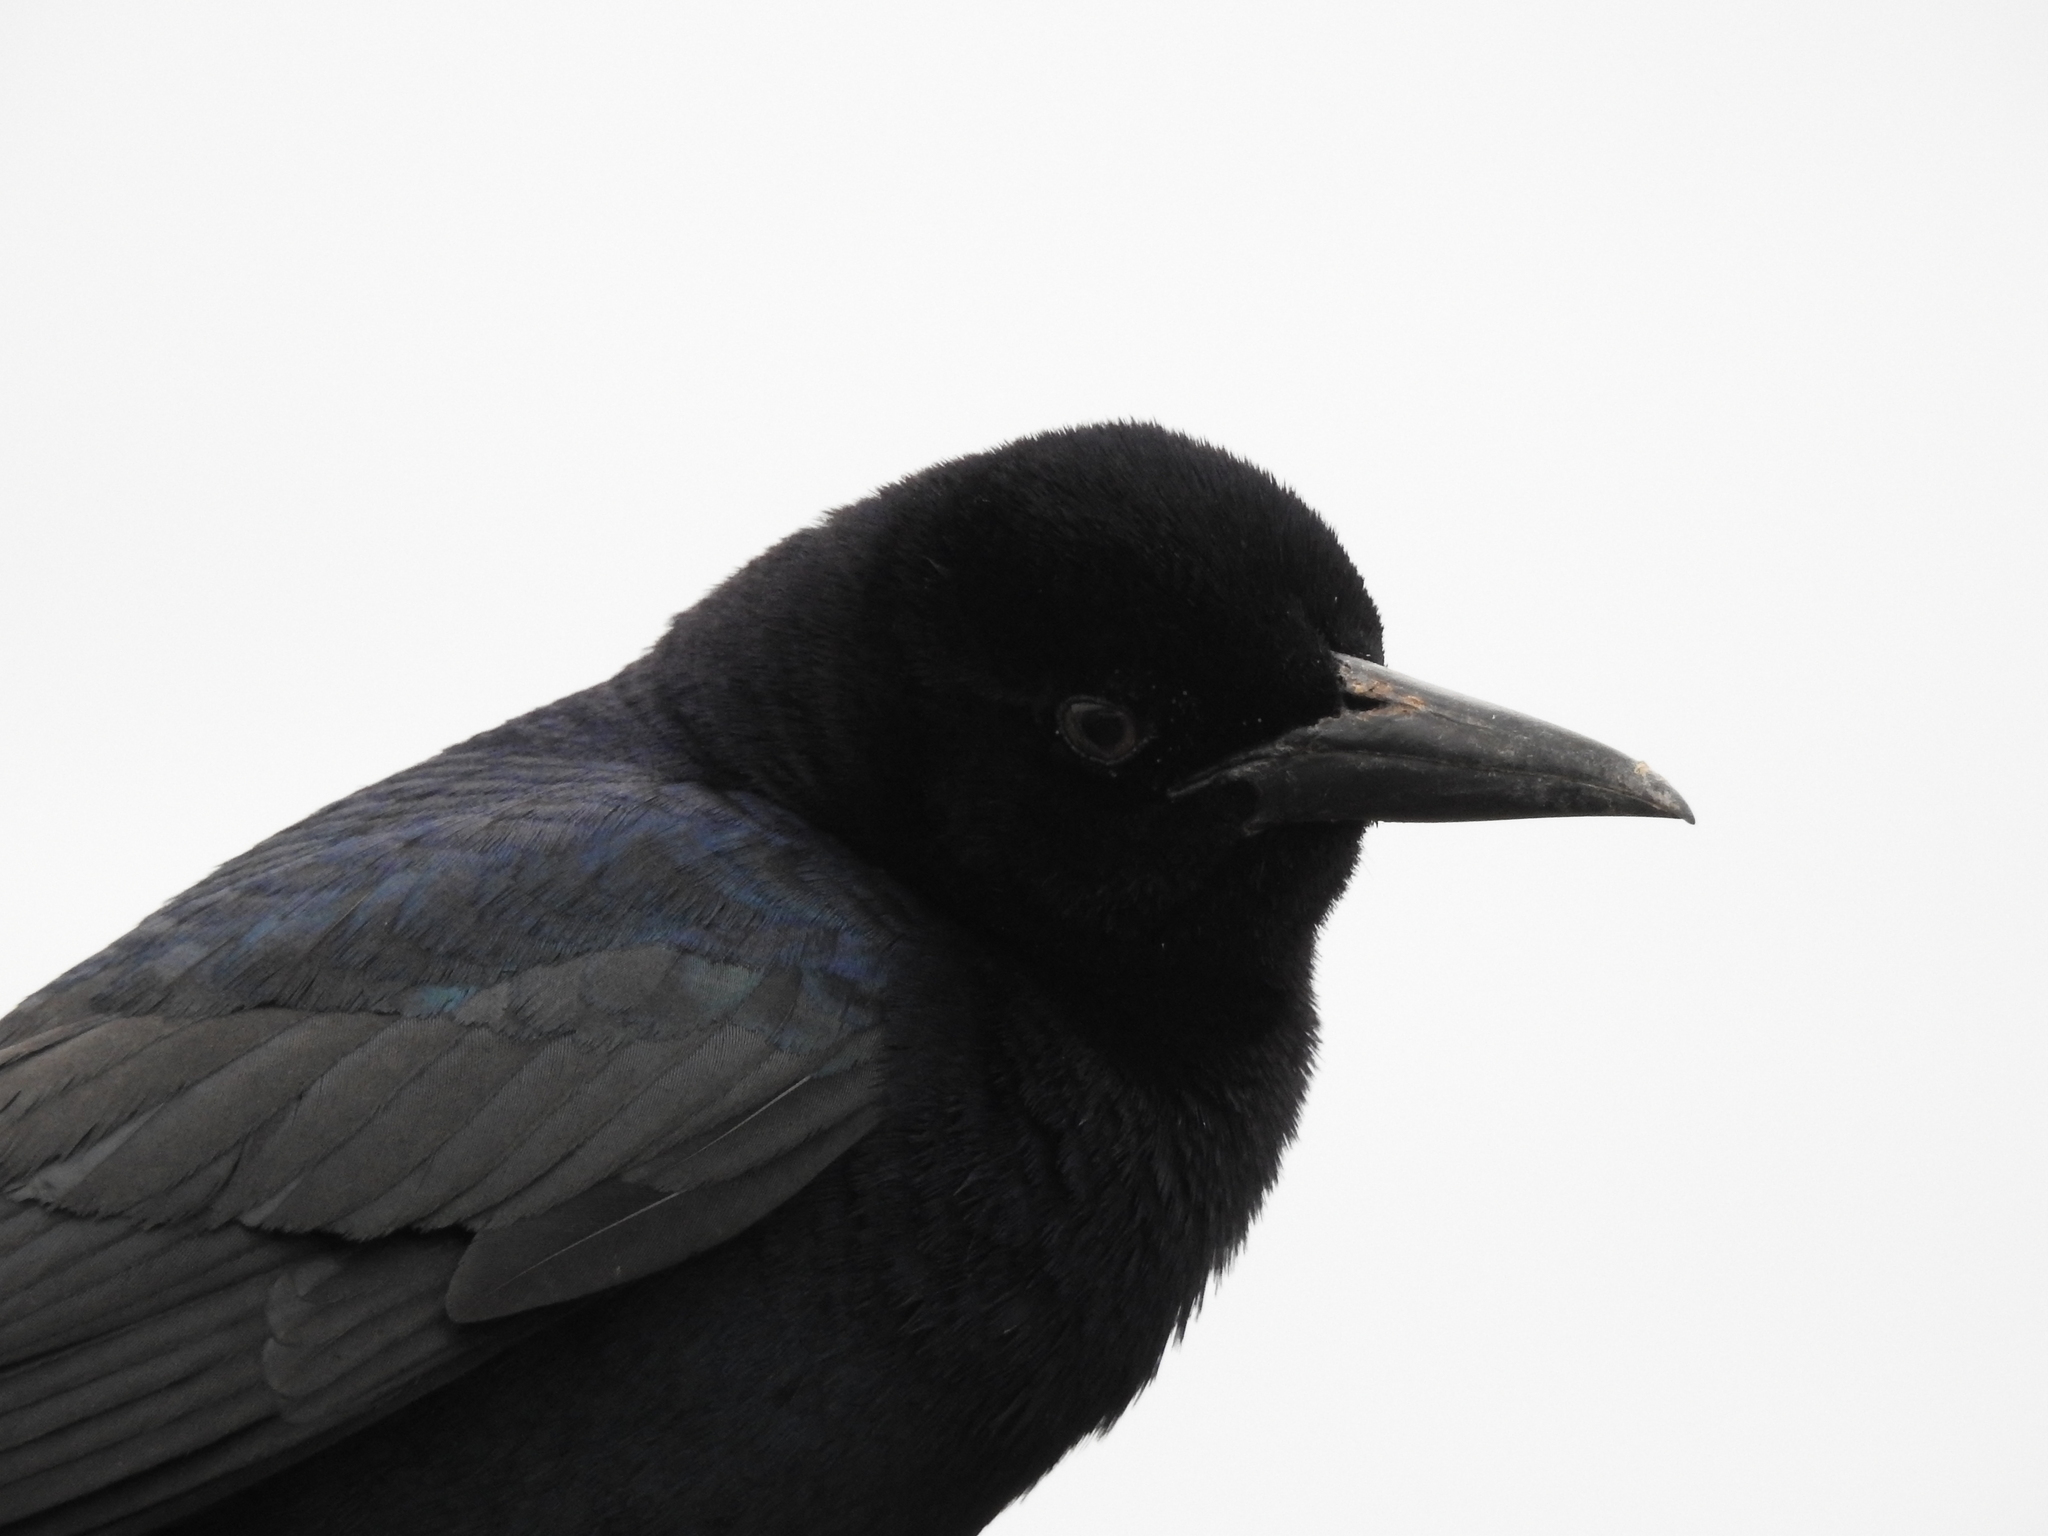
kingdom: Animalia
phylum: Chordata
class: Aves
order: Passeriformes
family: Icteridae
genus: Quiscalus
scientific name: Quiscalus major
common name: Boat-tailed grackle
